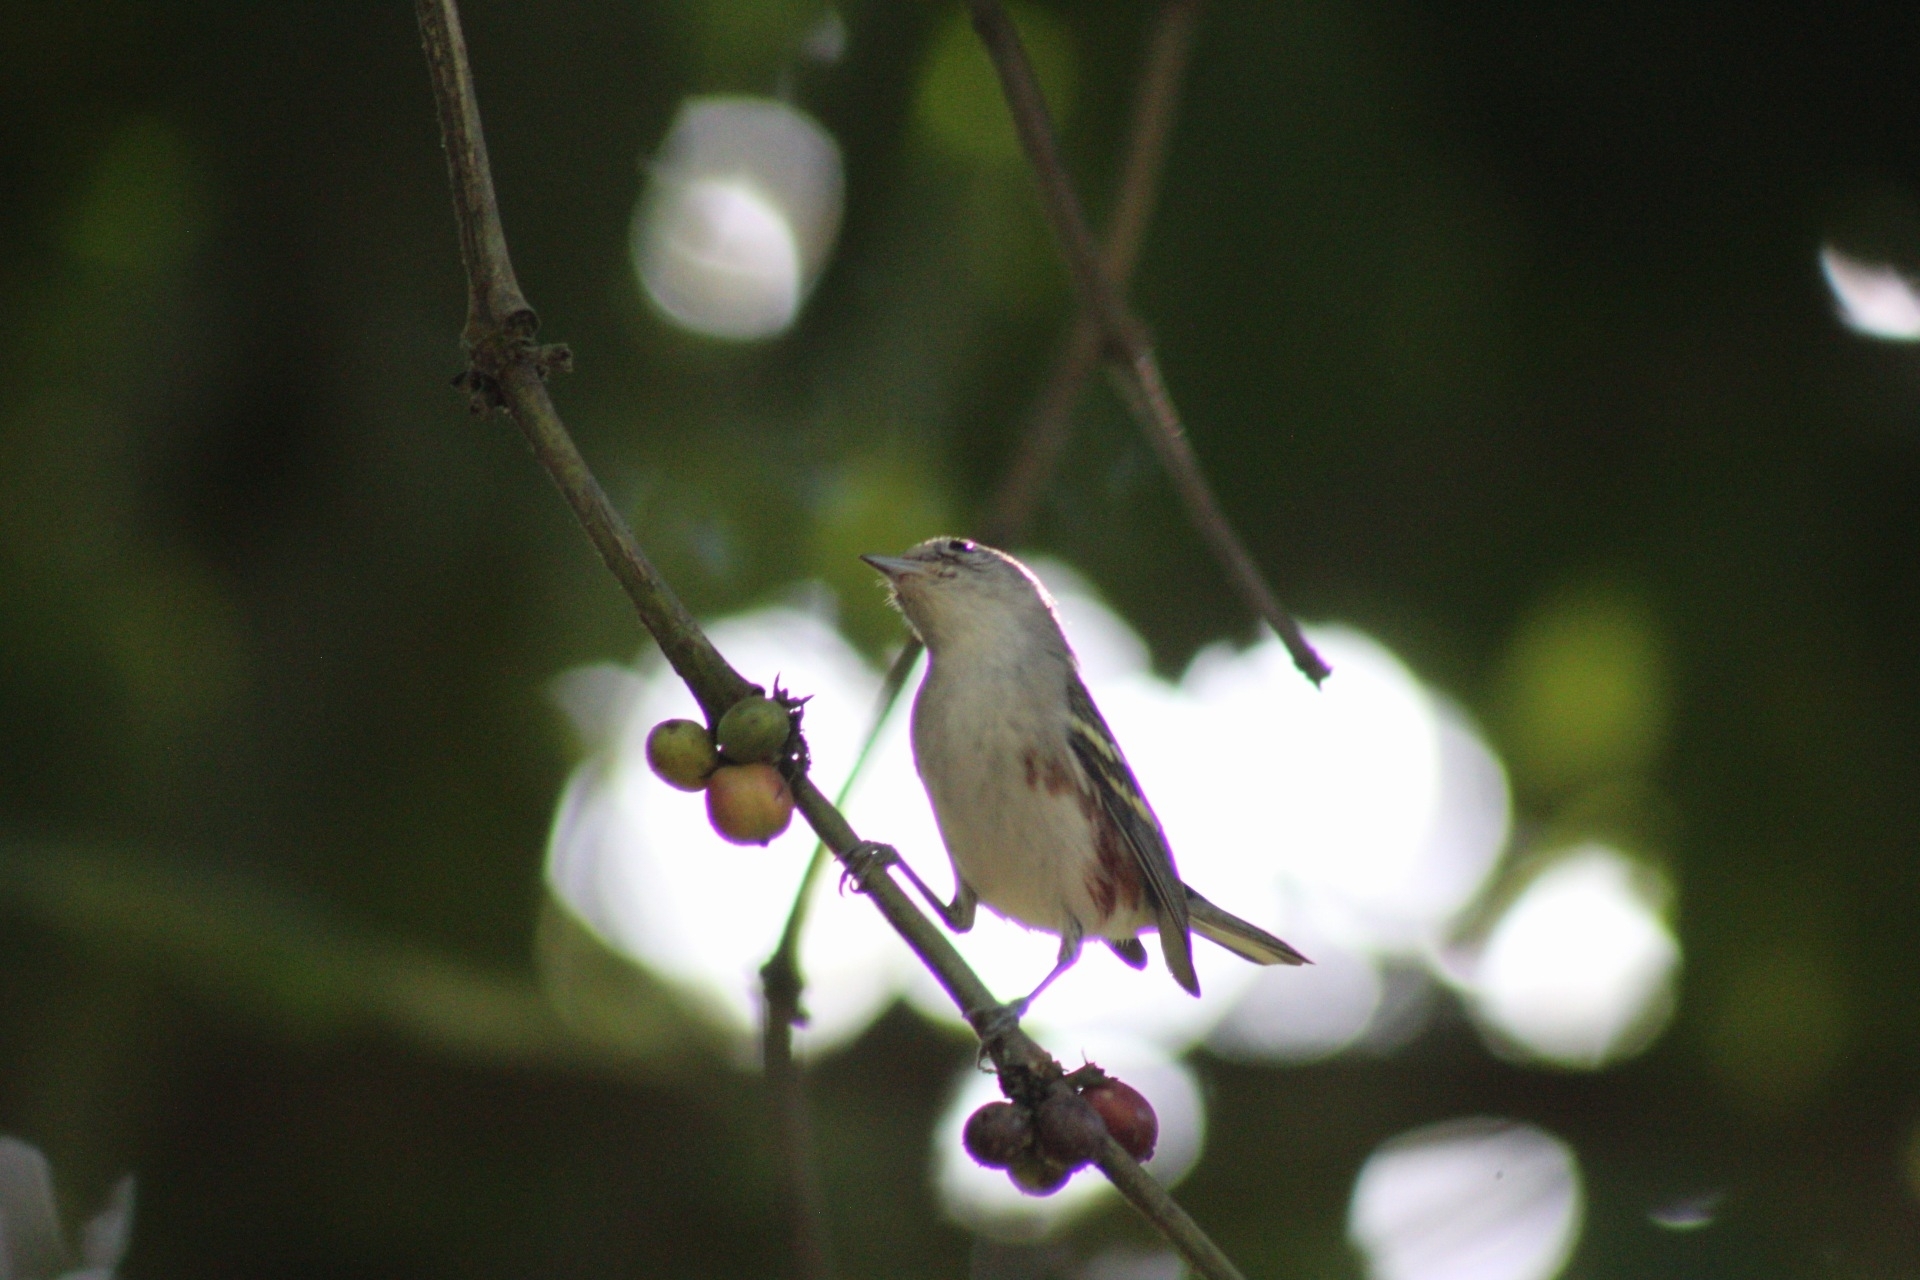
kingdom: Animalia
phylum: Chordata
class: Aves
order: Passeriformes
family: Parulidae
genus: Setophaga
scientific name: Setophaga pensylvanica
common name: Chestnut-sided warbler
